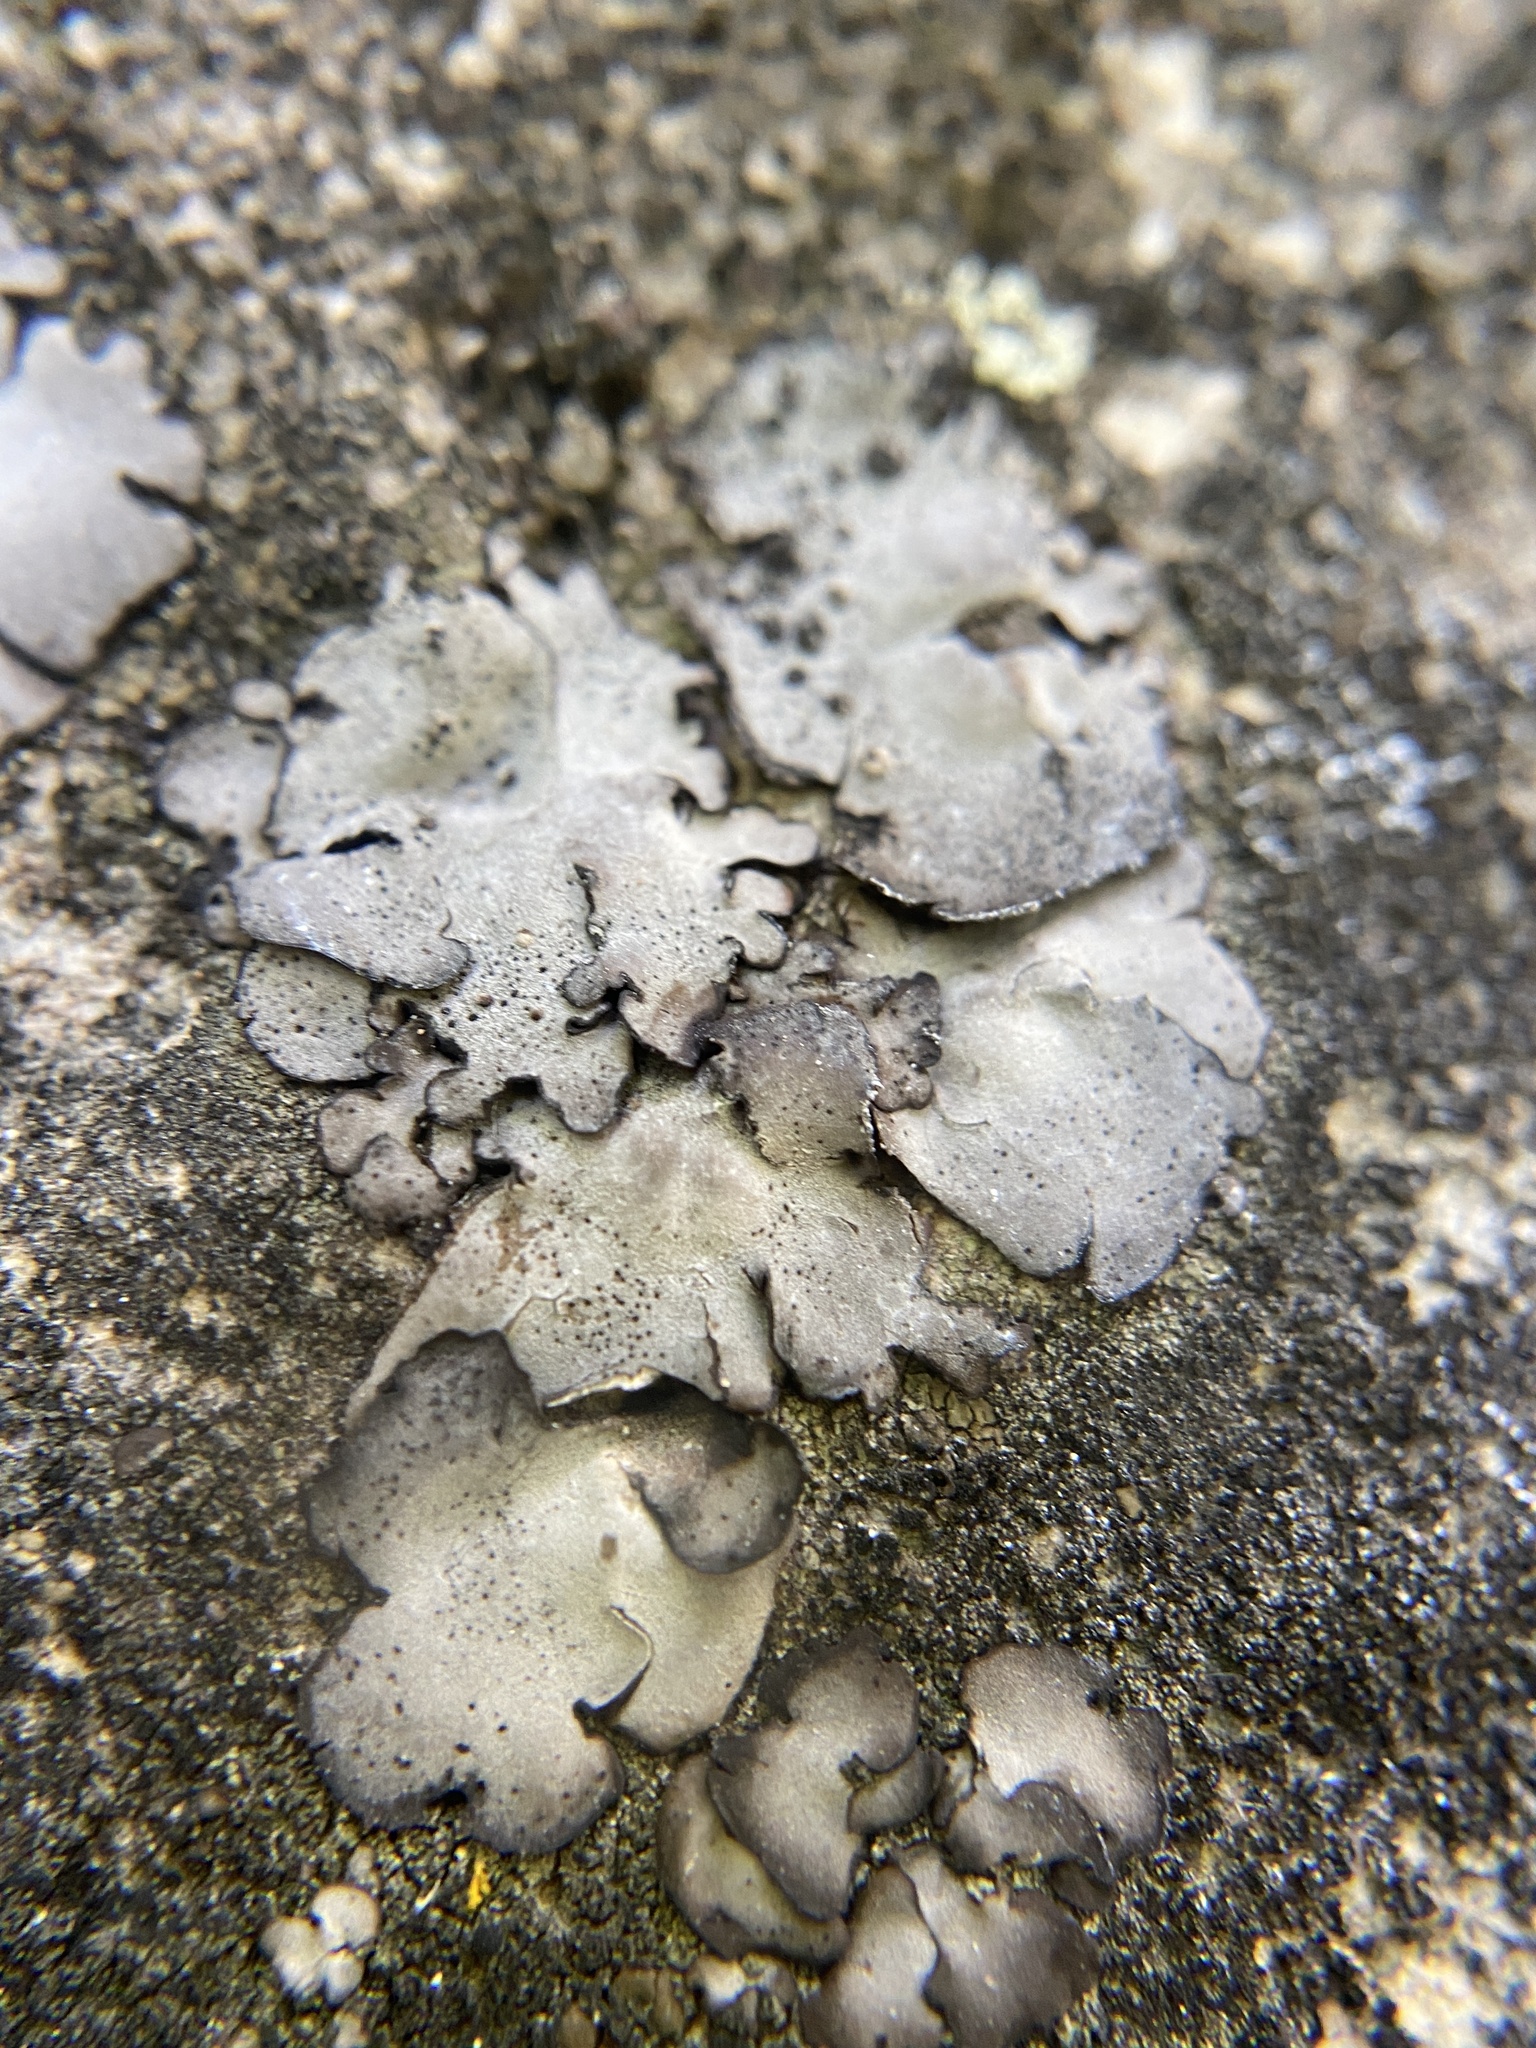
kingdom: Fungi
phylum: Ascomycota
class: Eurotiomycetes
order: Verrucariales
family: Verrucariaceae
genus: Dermatocarpon
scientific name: Dermatocarpon miniatum
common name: Leather lichen
